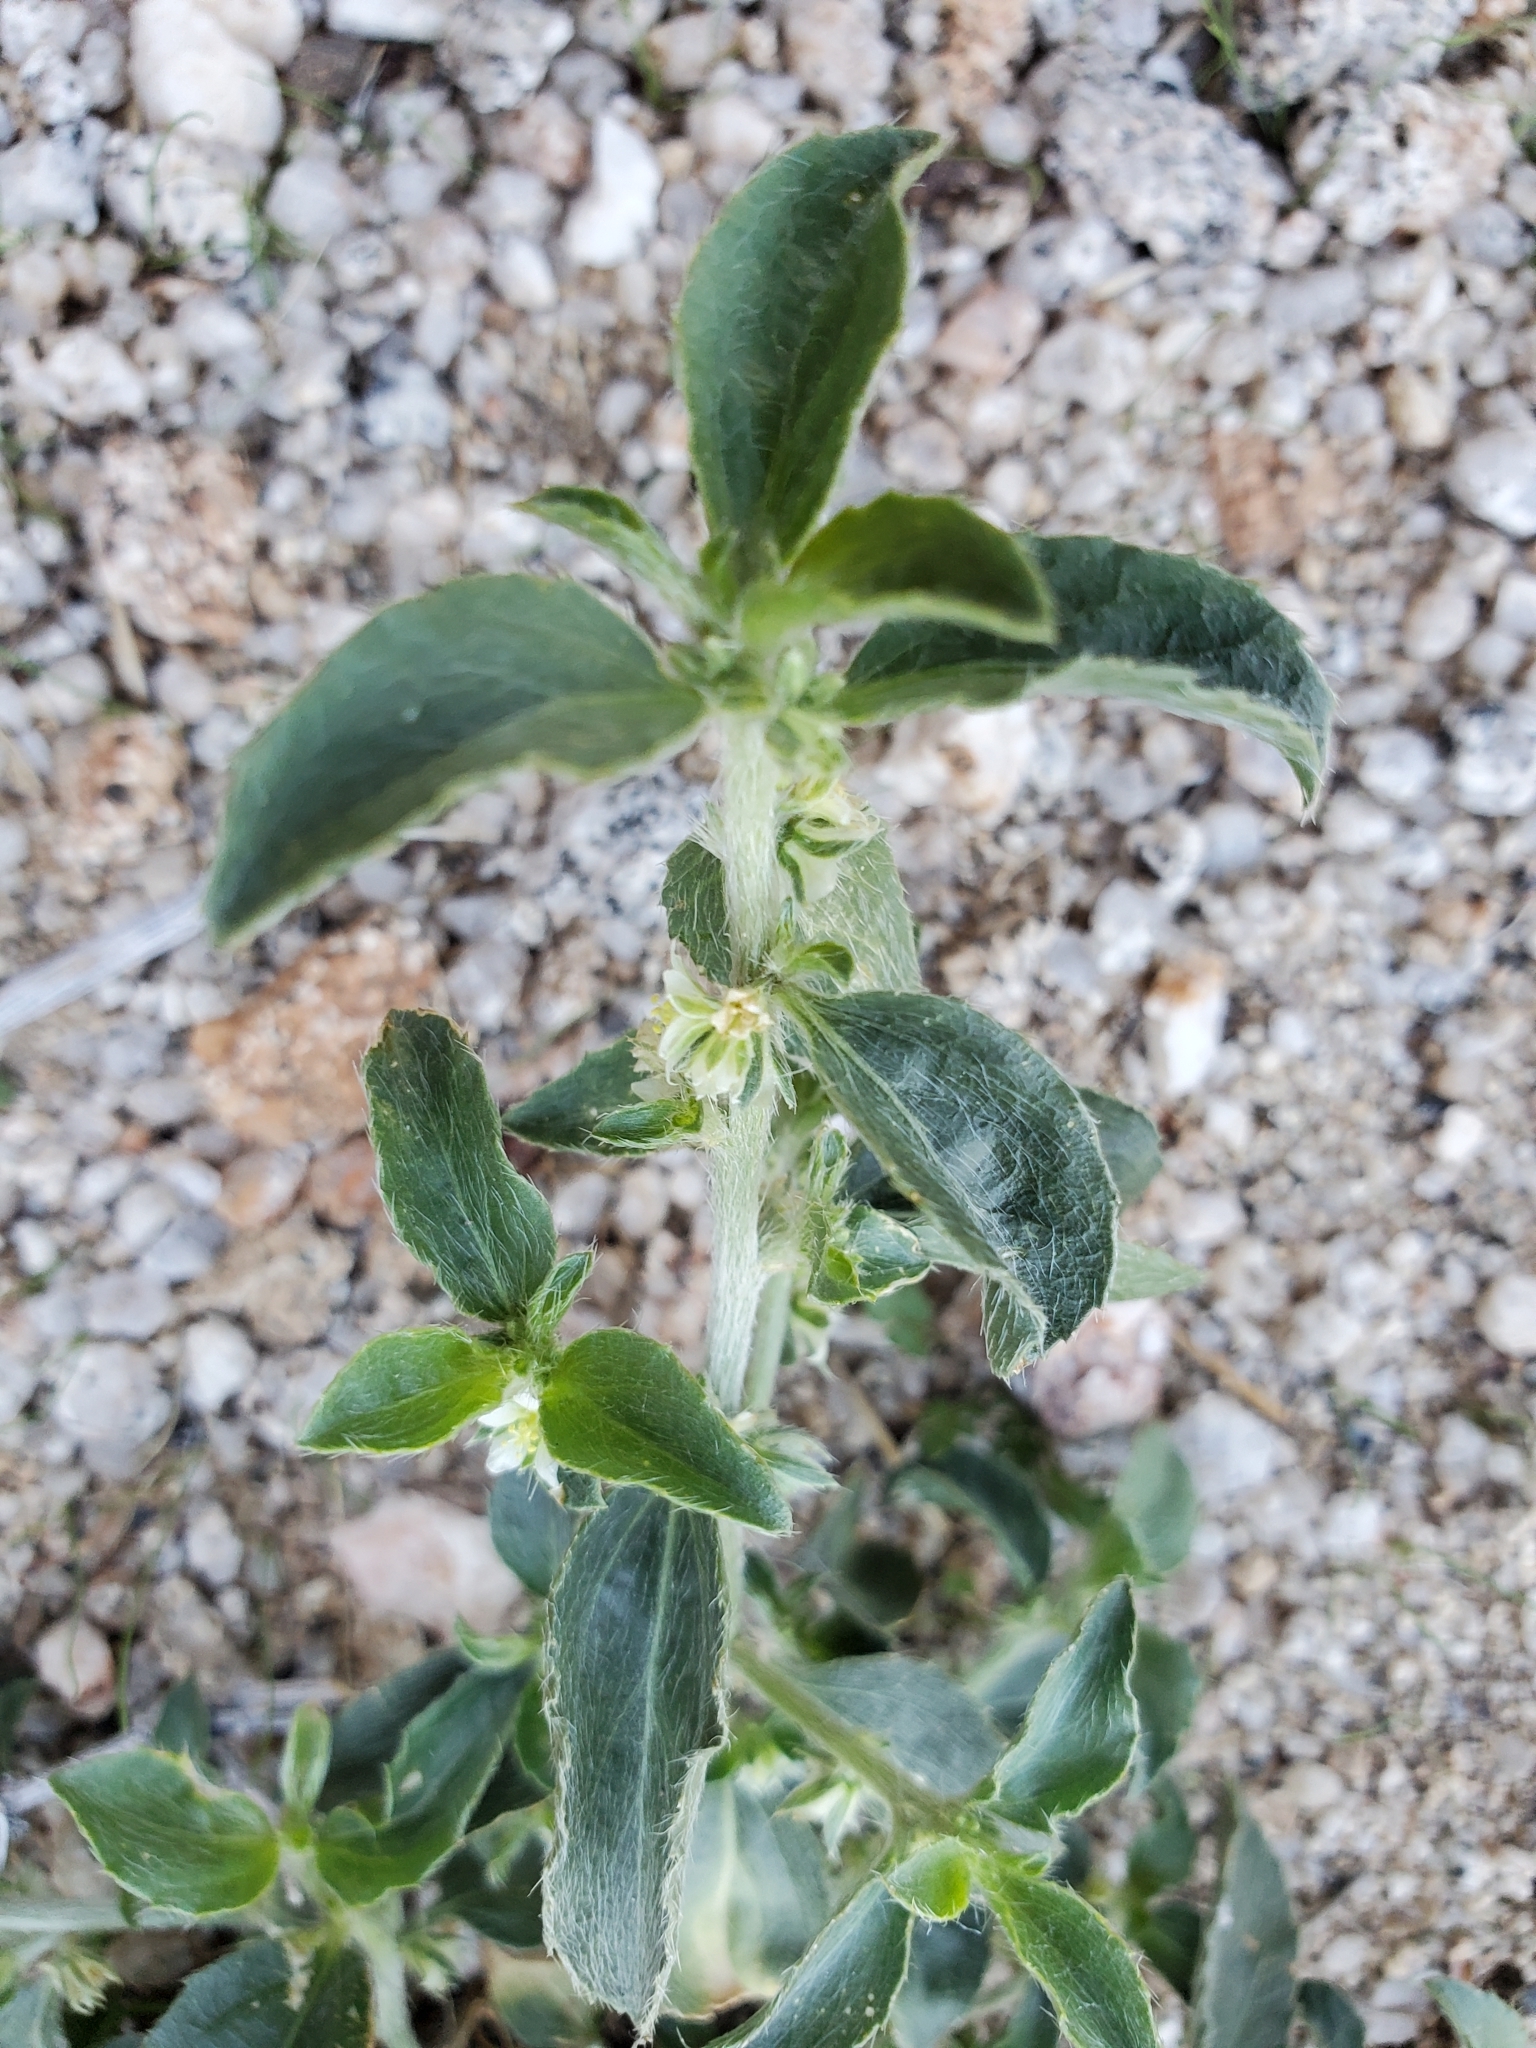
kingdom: Plantae
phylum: Tracheophyta
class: Magnoliopsida
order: Malpighiales
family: Euphorbiaceae
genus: Ditaxis
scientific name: Ditaxis serrata
